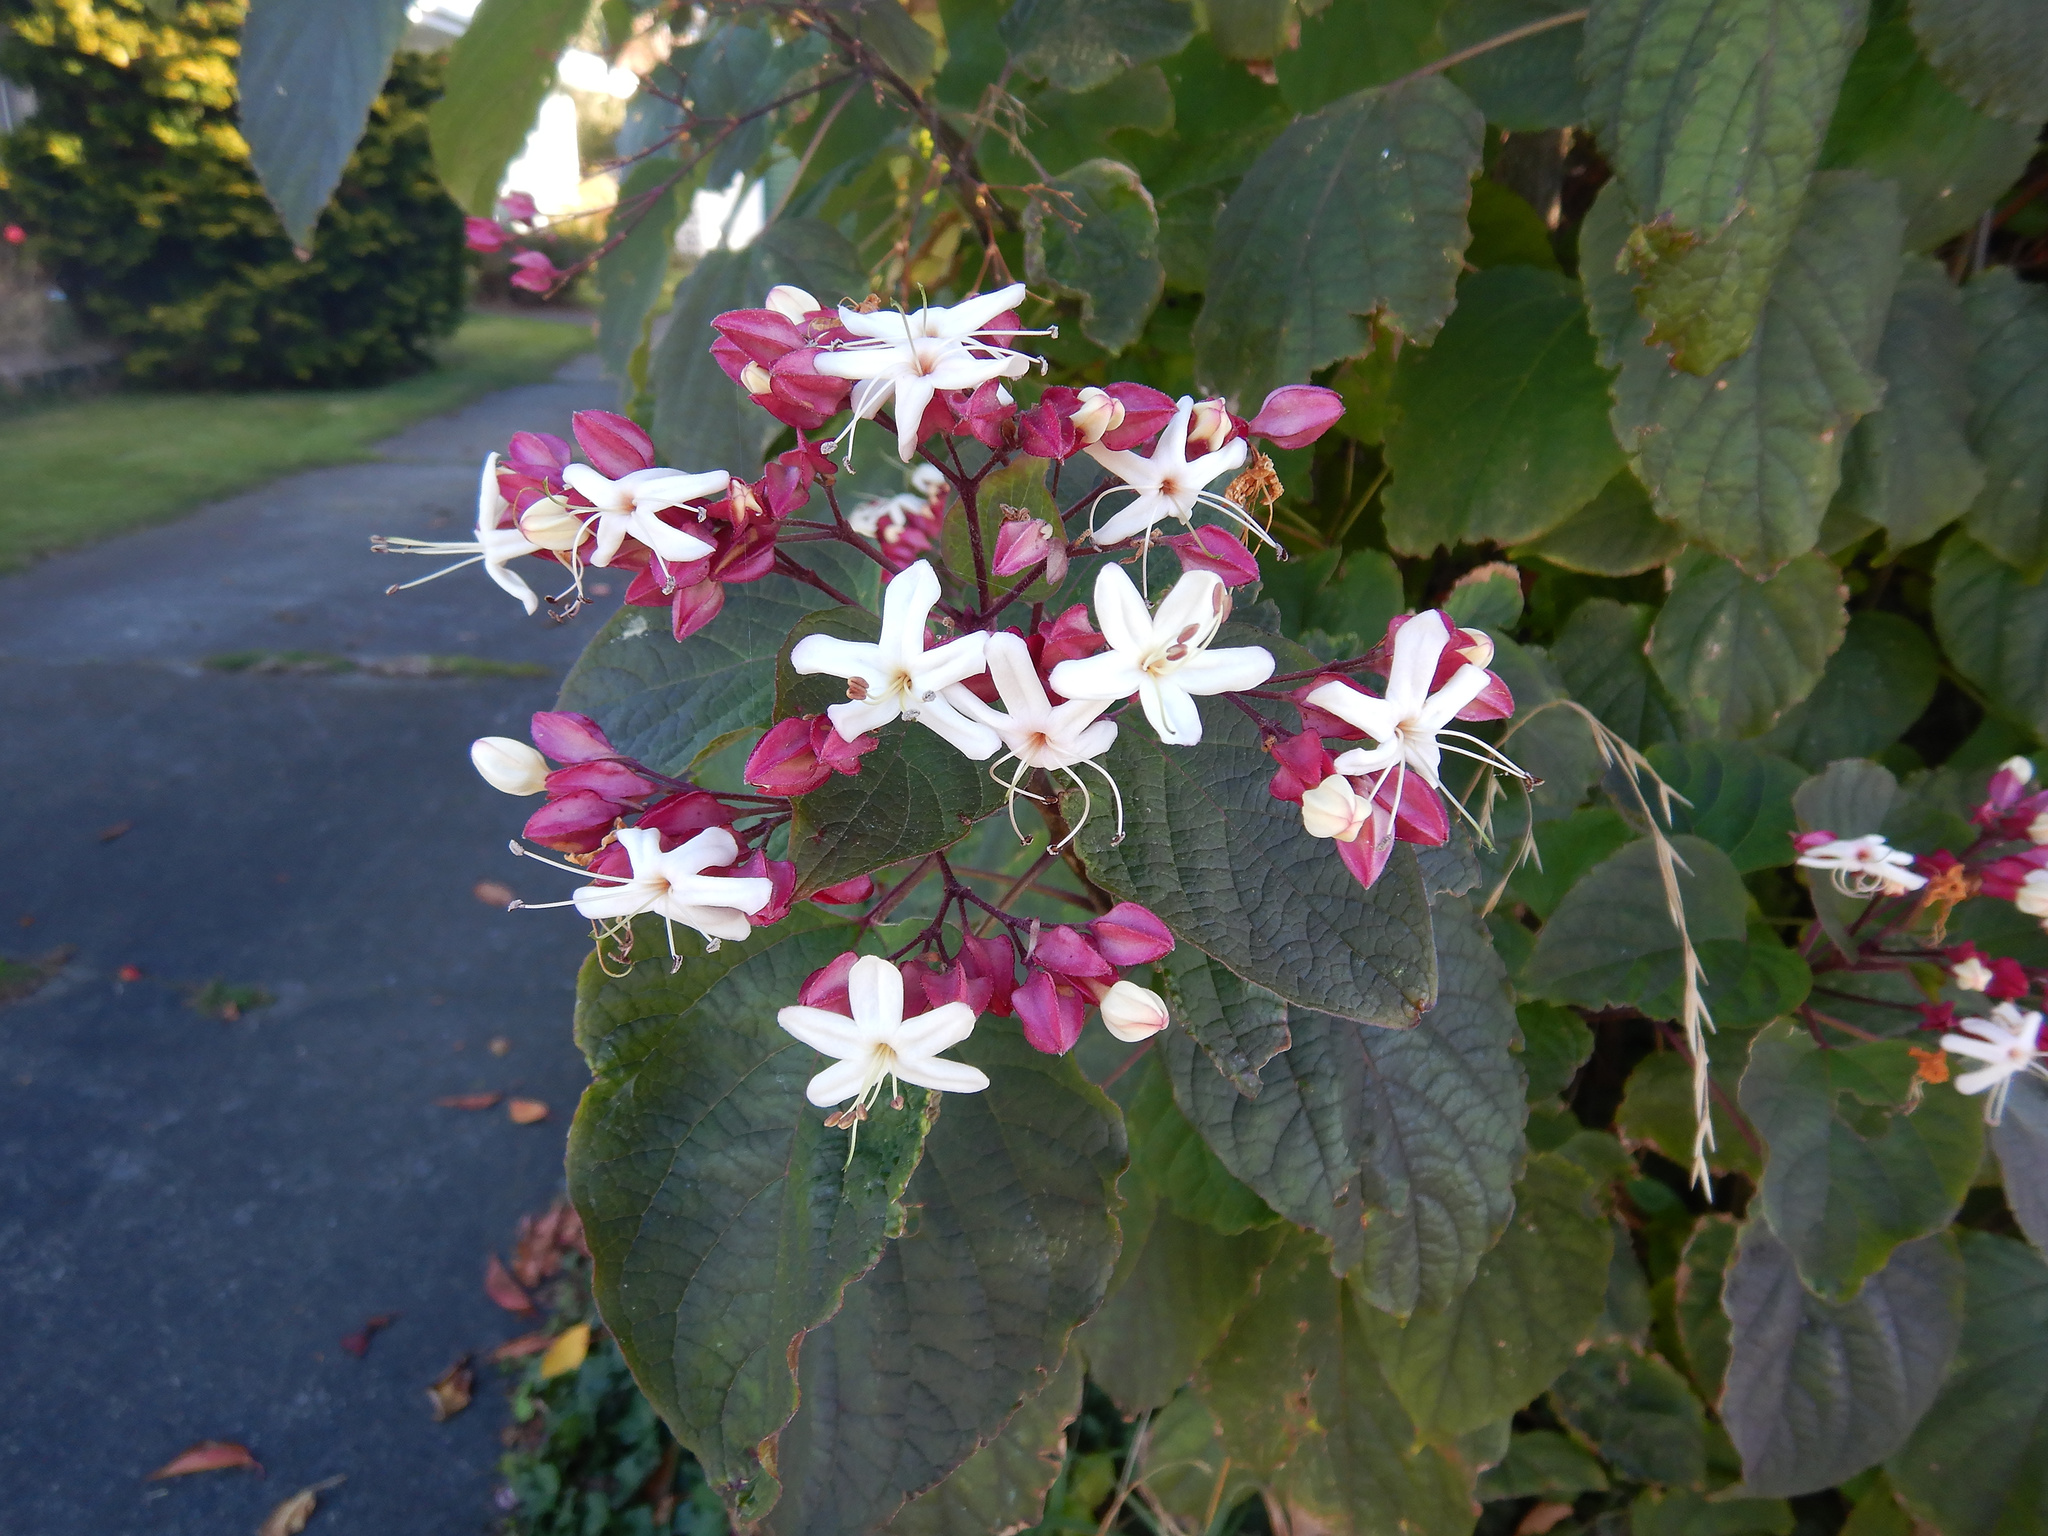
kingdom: Plantae
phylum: Tracheophyta
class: Magnoliopsida
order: Lamiales
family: Lamiaceae
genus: Clerodendrum
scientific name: Clerodendrum trichotomum
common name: Harlequin glorybower
